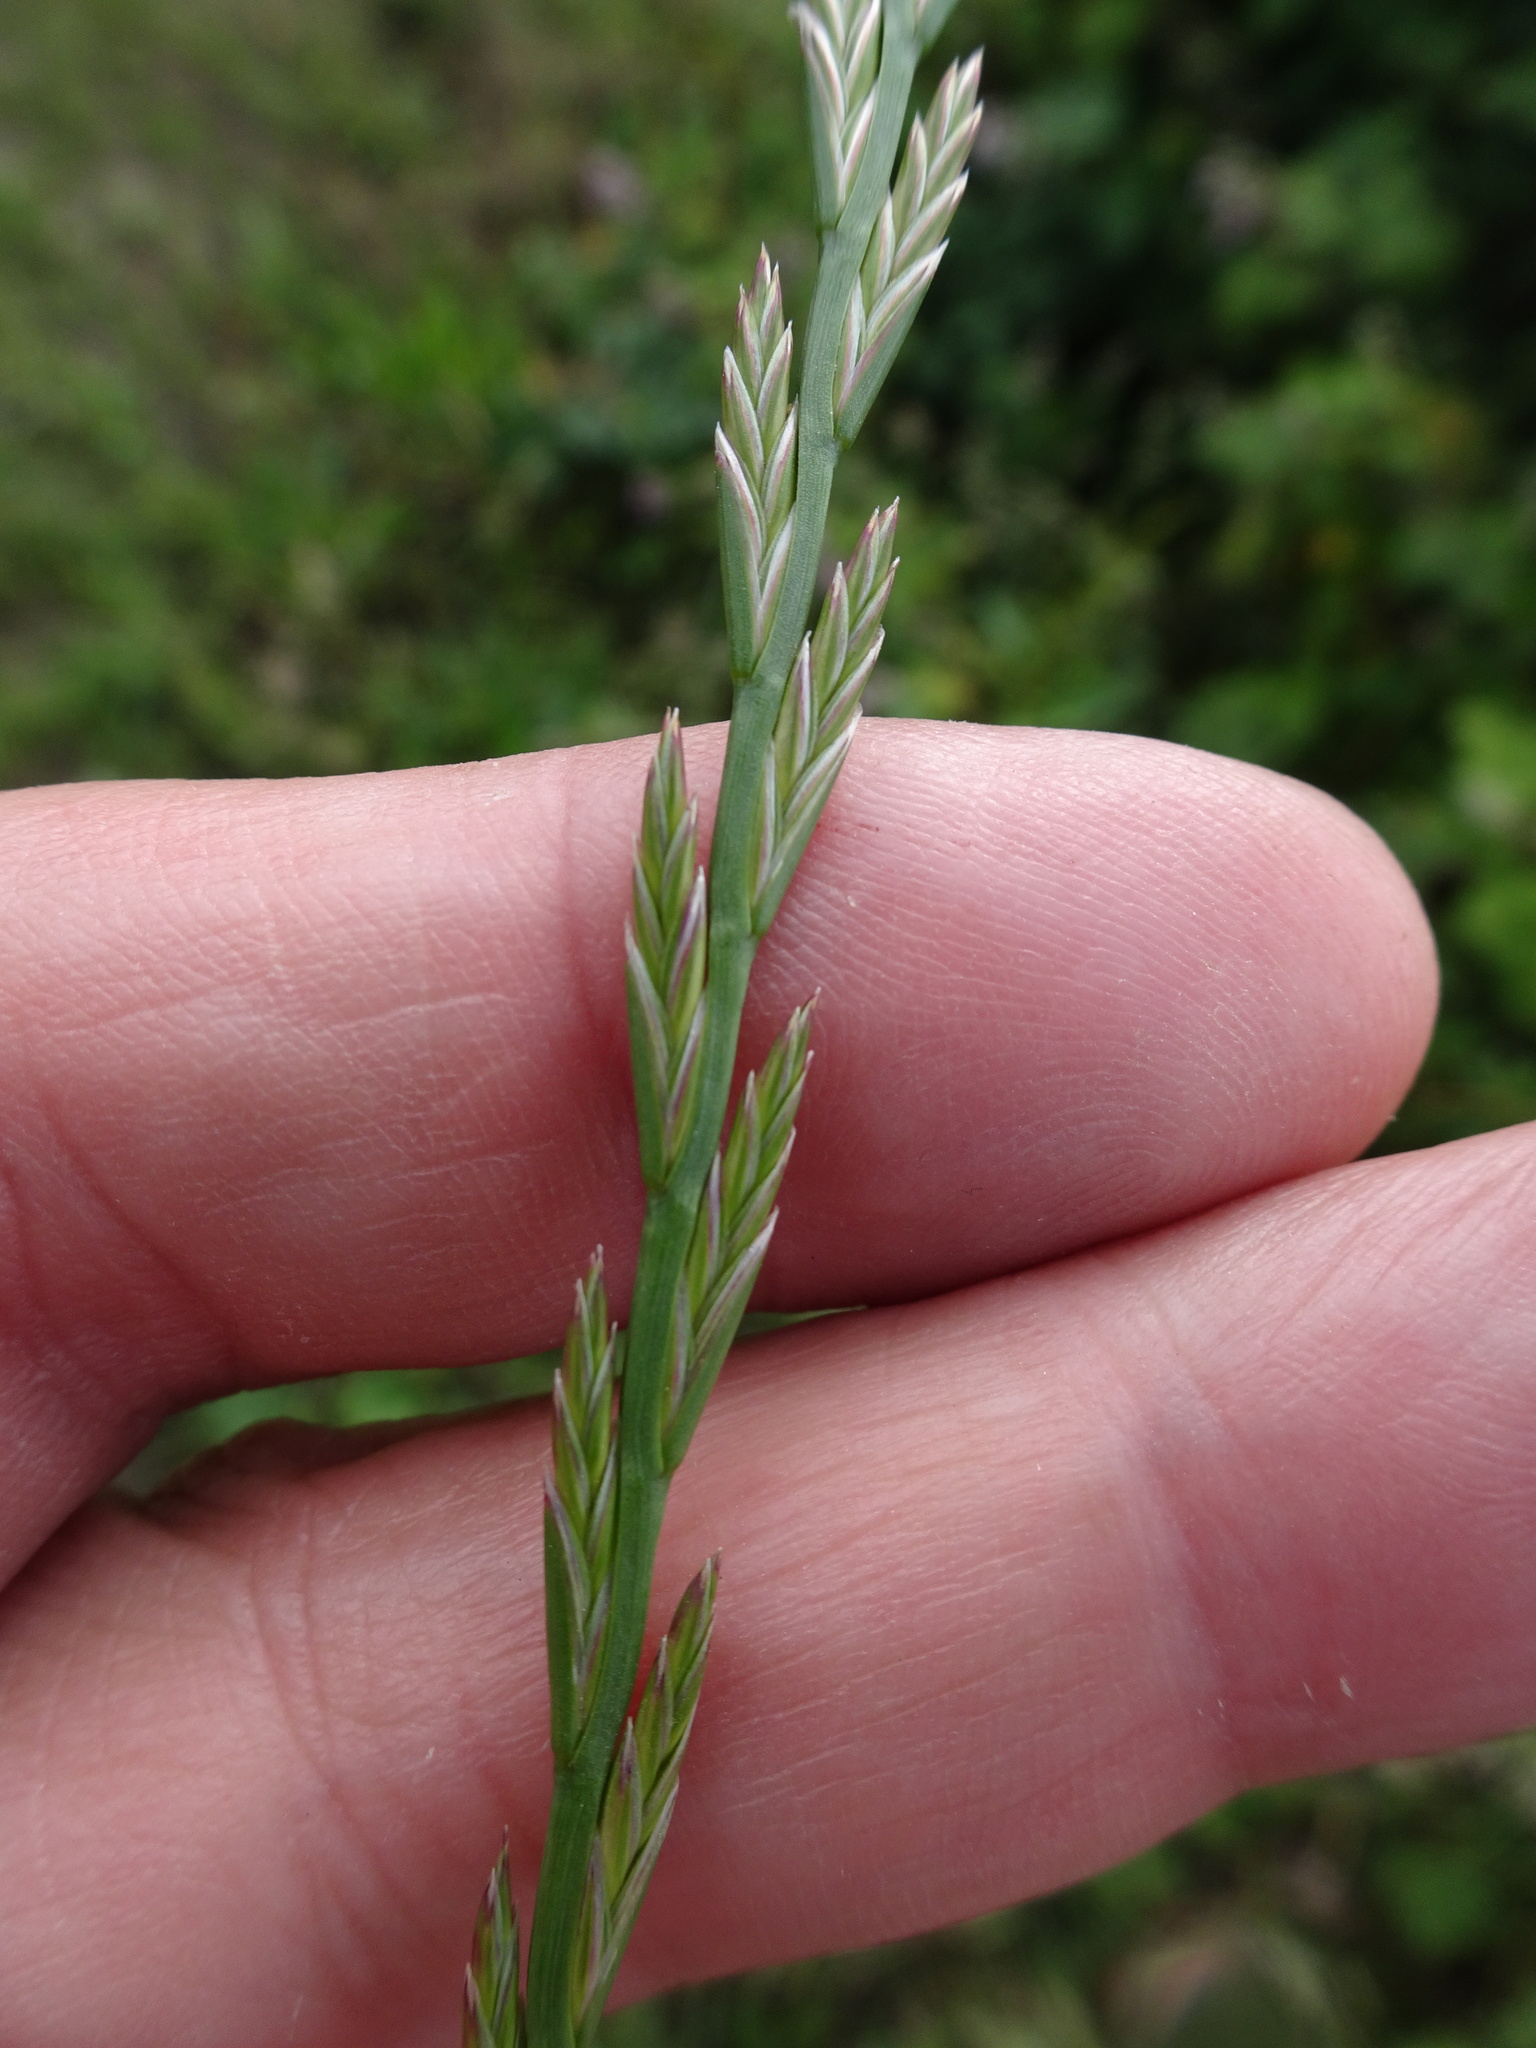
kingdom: Plantae
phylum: Tracheophyta
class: Liliopsida
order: Poales
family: Poaceae
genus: Lolium
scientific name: Lolium perenne
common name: Perennial ryegrass
